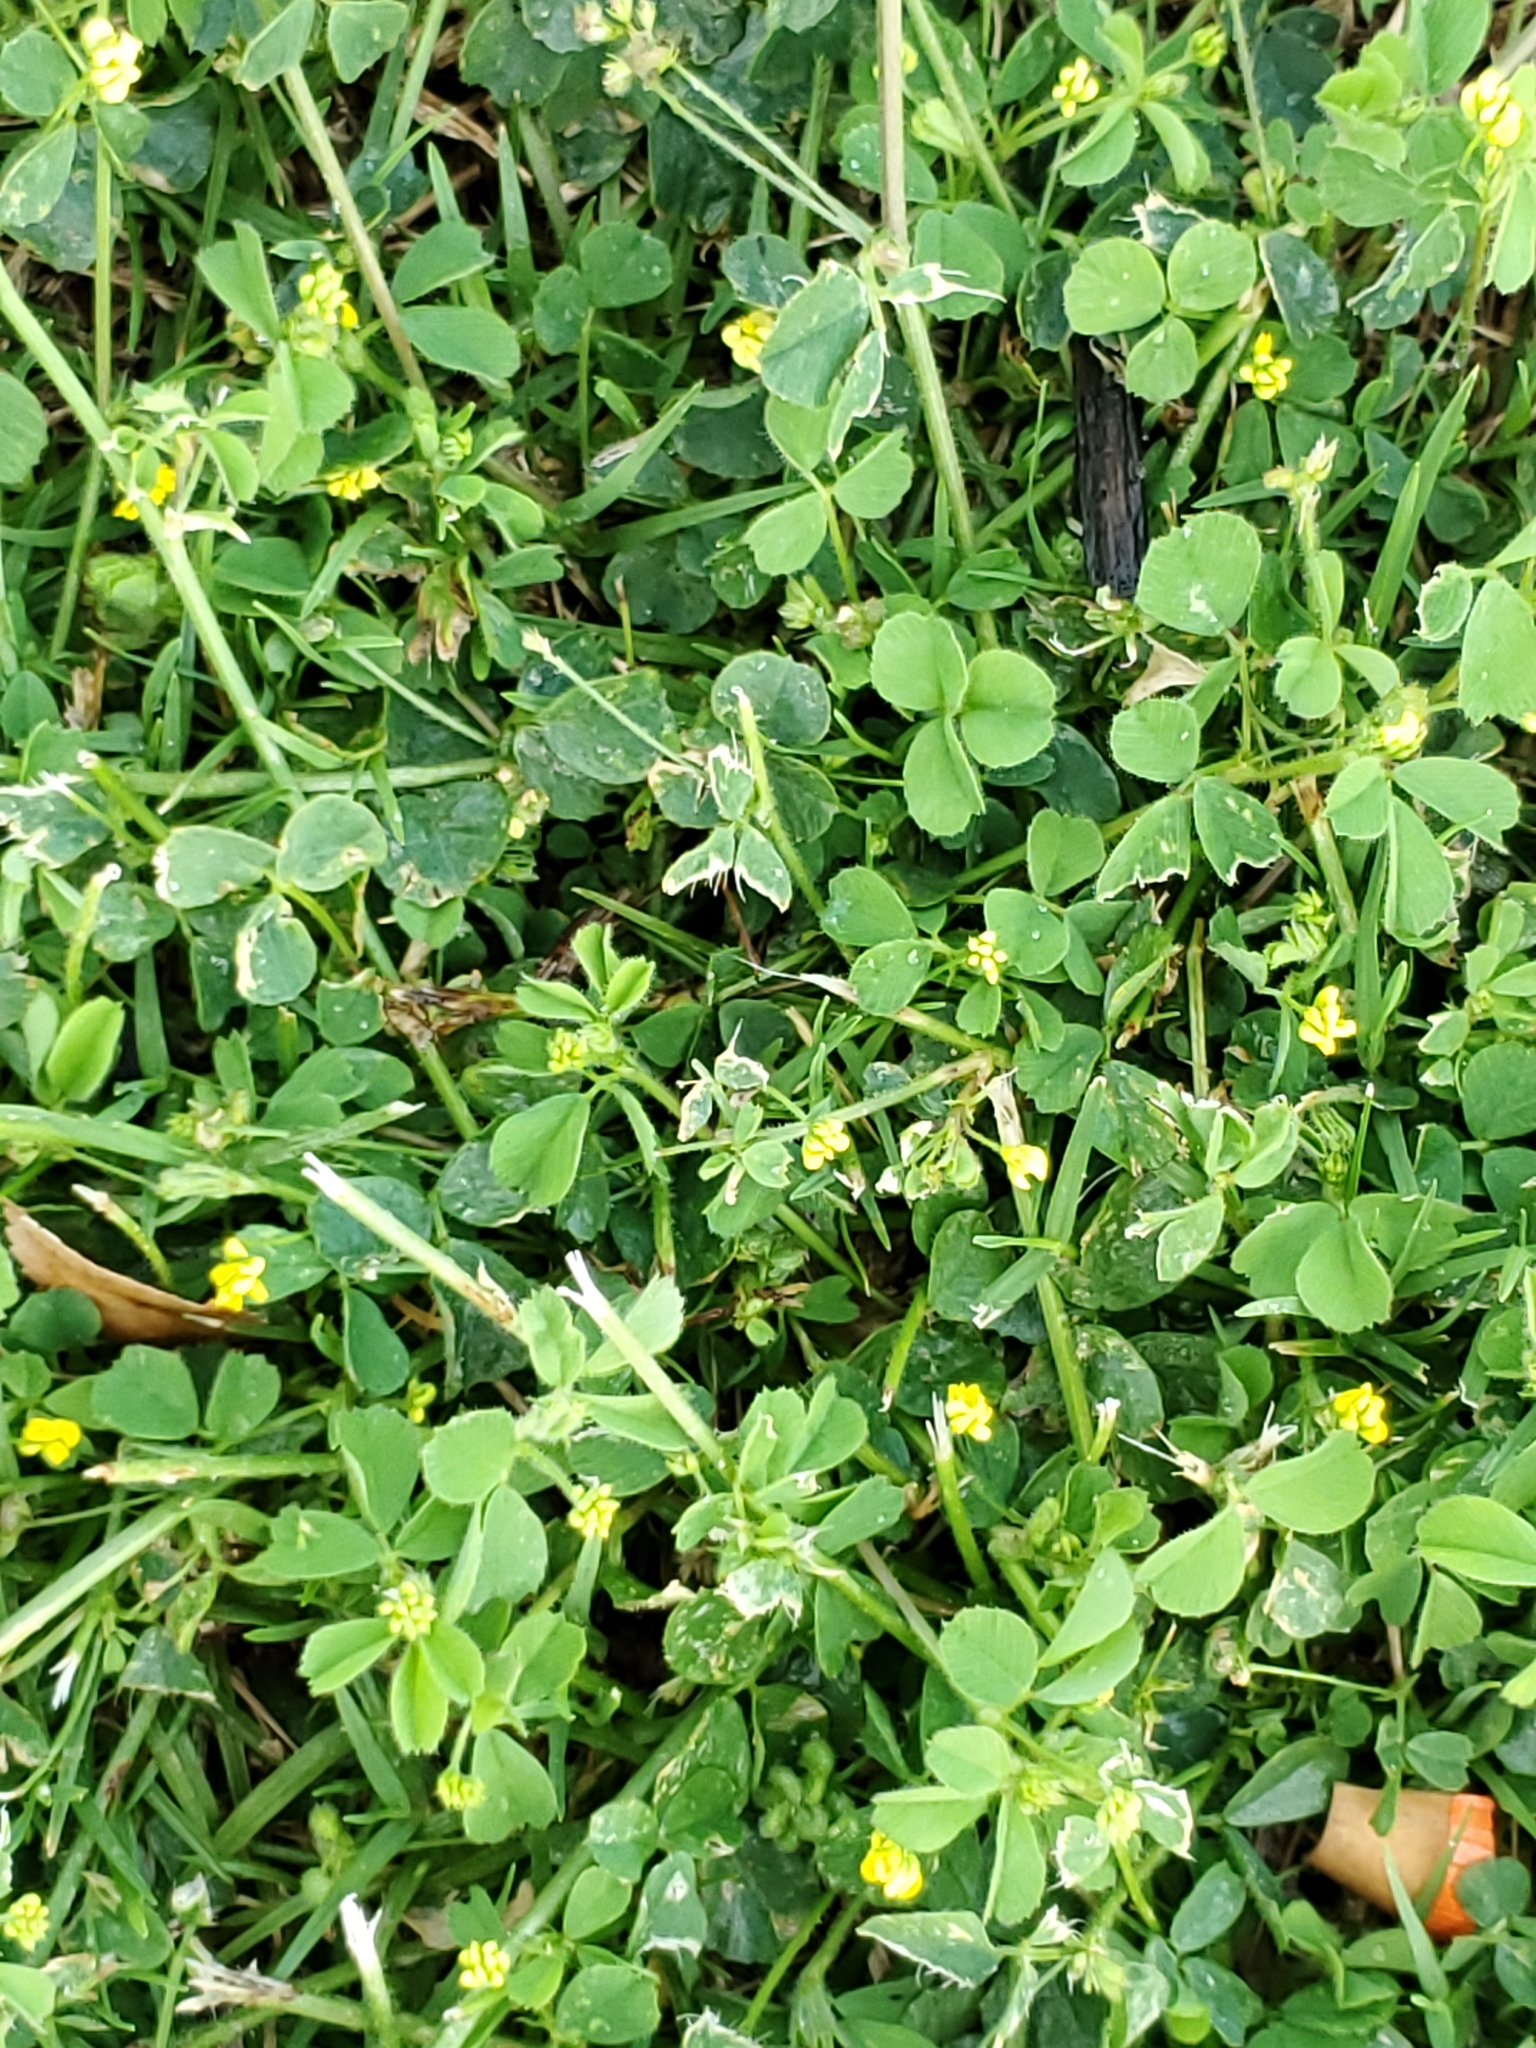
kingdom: Plantae
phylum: Tracheophyta
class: Magnoliopsida
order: Fabales
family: Fabaceae
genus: Medicago
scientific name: Medicago lupulina
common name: Black medick
